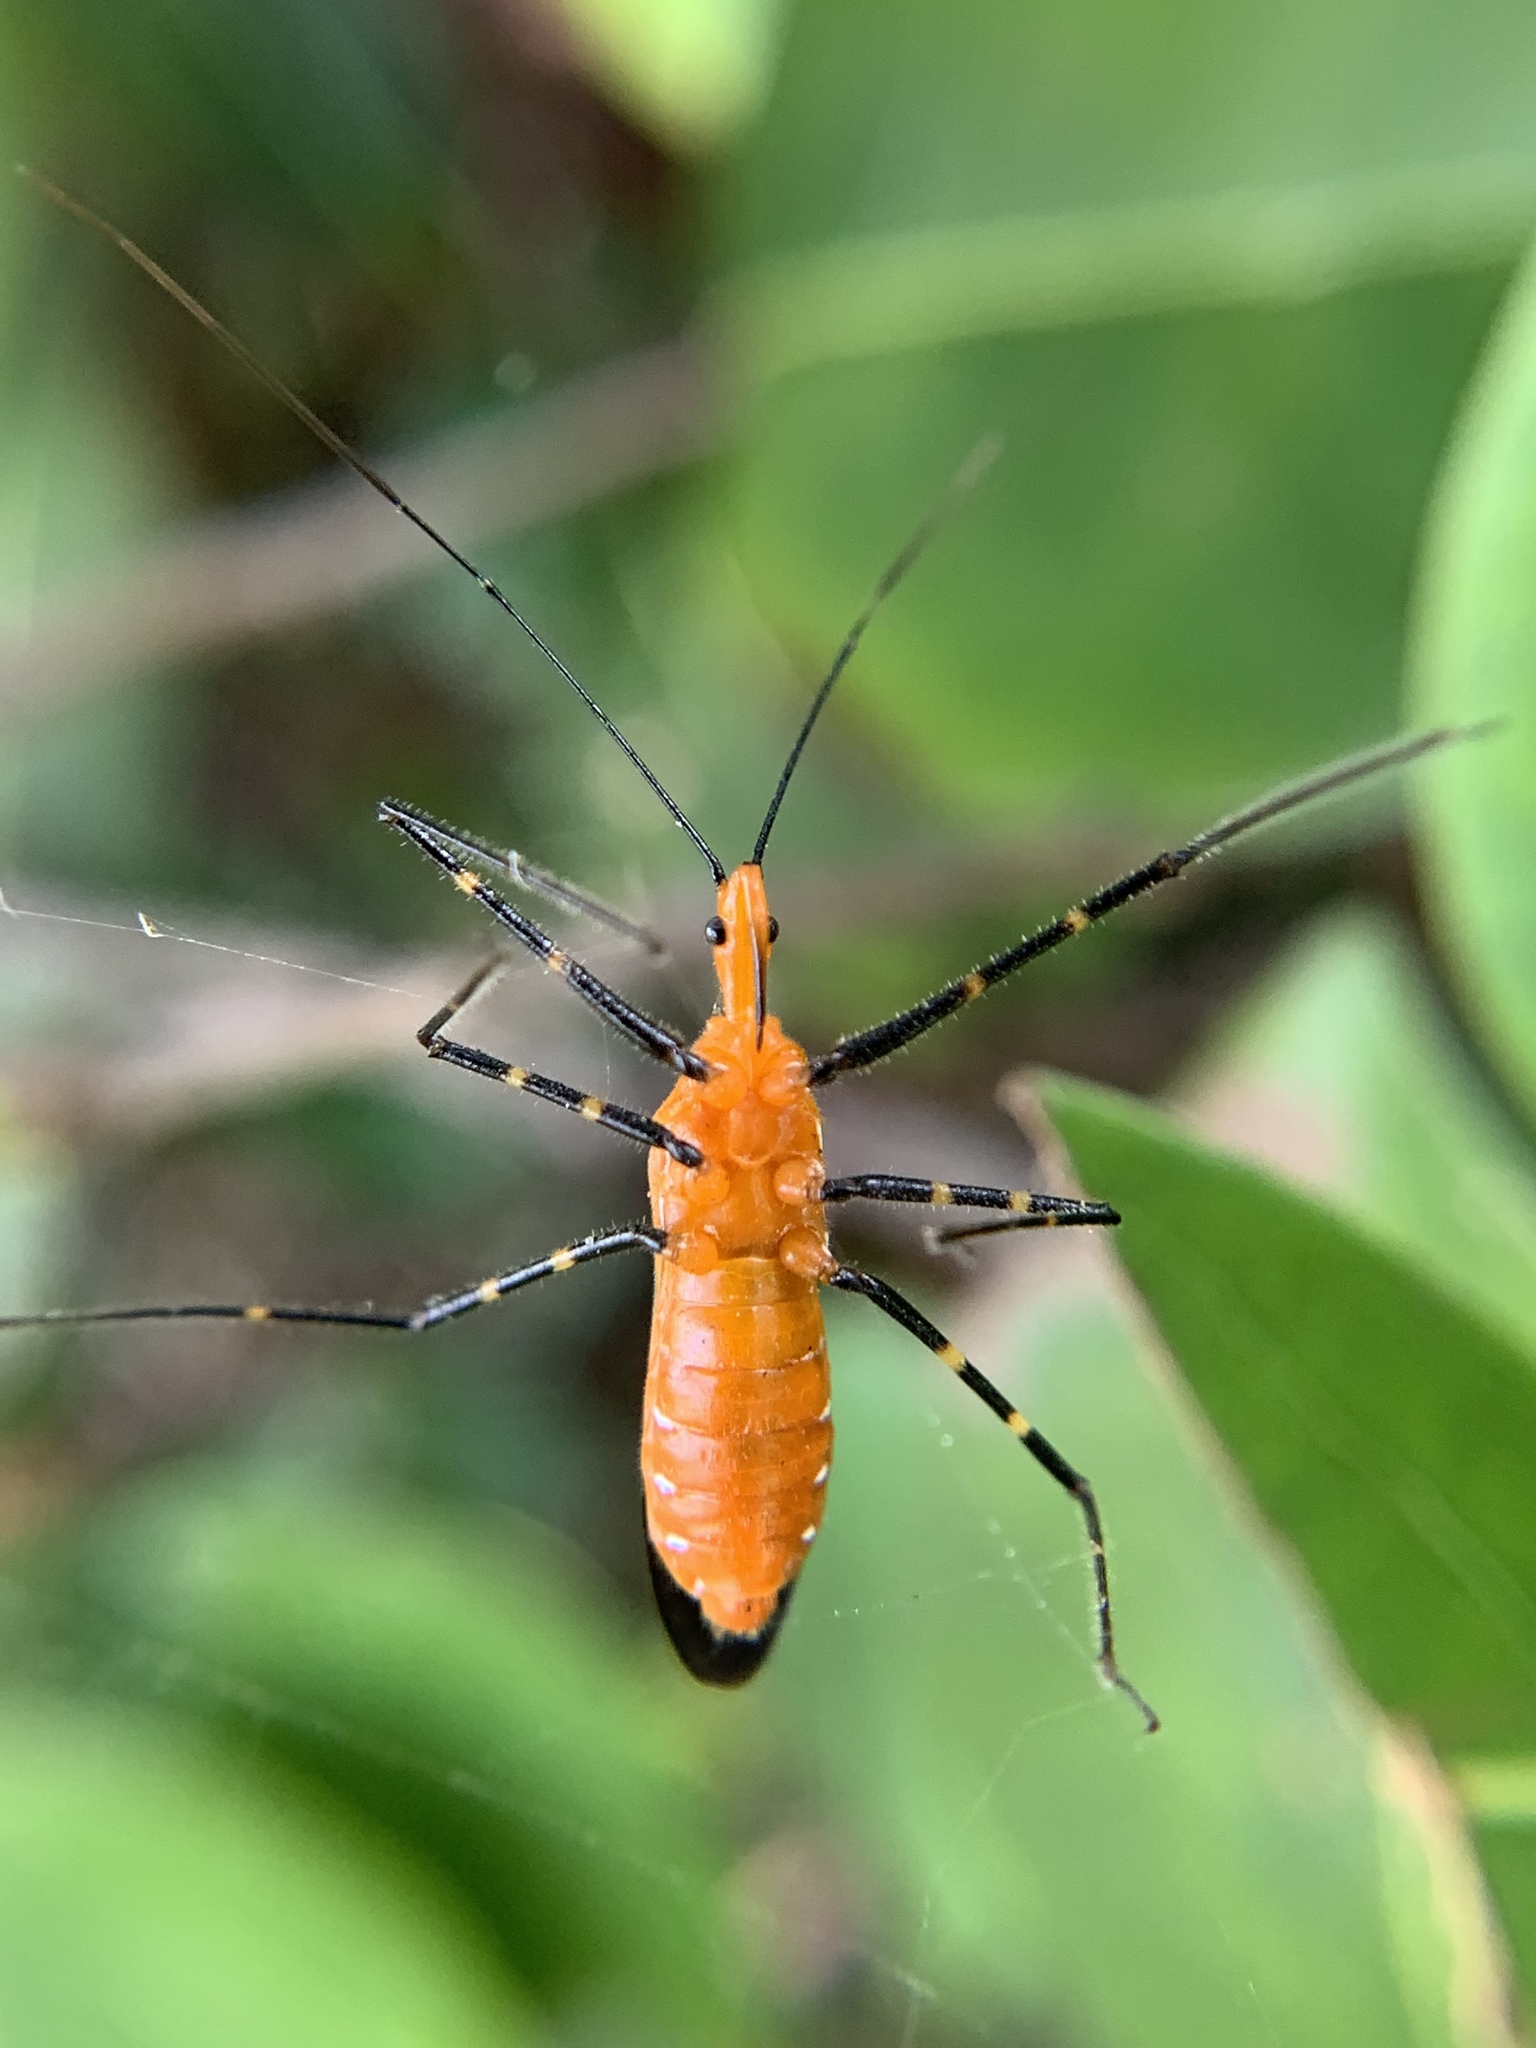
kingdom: Animalia
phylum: Arthropoda
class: Insecta
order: Hemiptera
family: Reduviidae
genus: Zelus
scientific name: Zelus longipes
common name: Milkweed assassin bug
